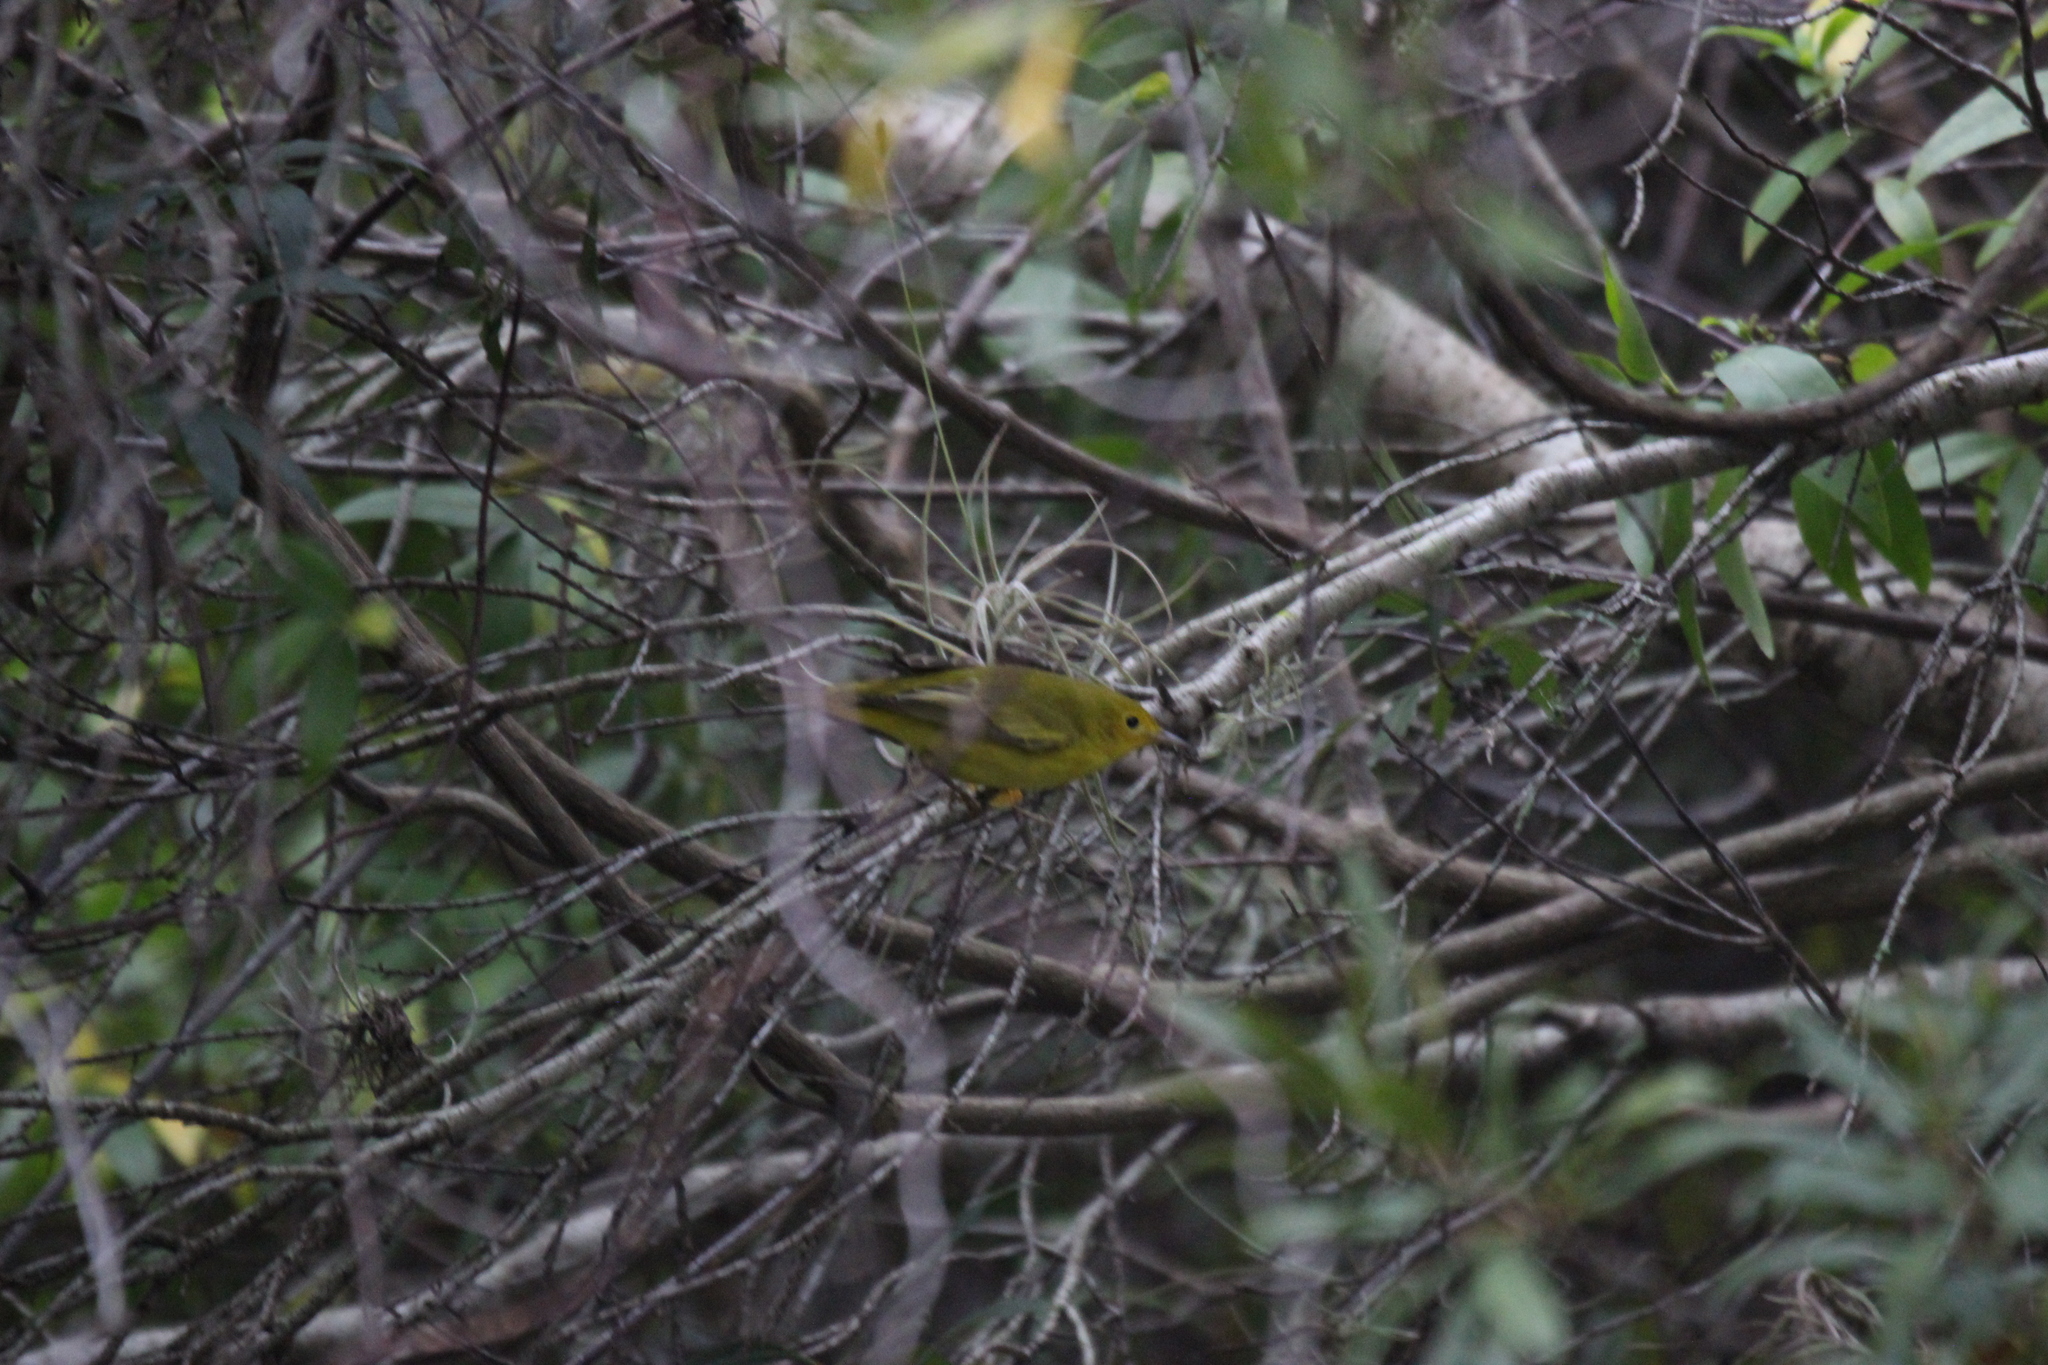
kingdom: Animalia
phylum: Chordata
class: Aves
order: Passeriformes
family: Parulidae
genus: Setophaga
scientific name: Setophaga petechia
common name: Yellow warbler
